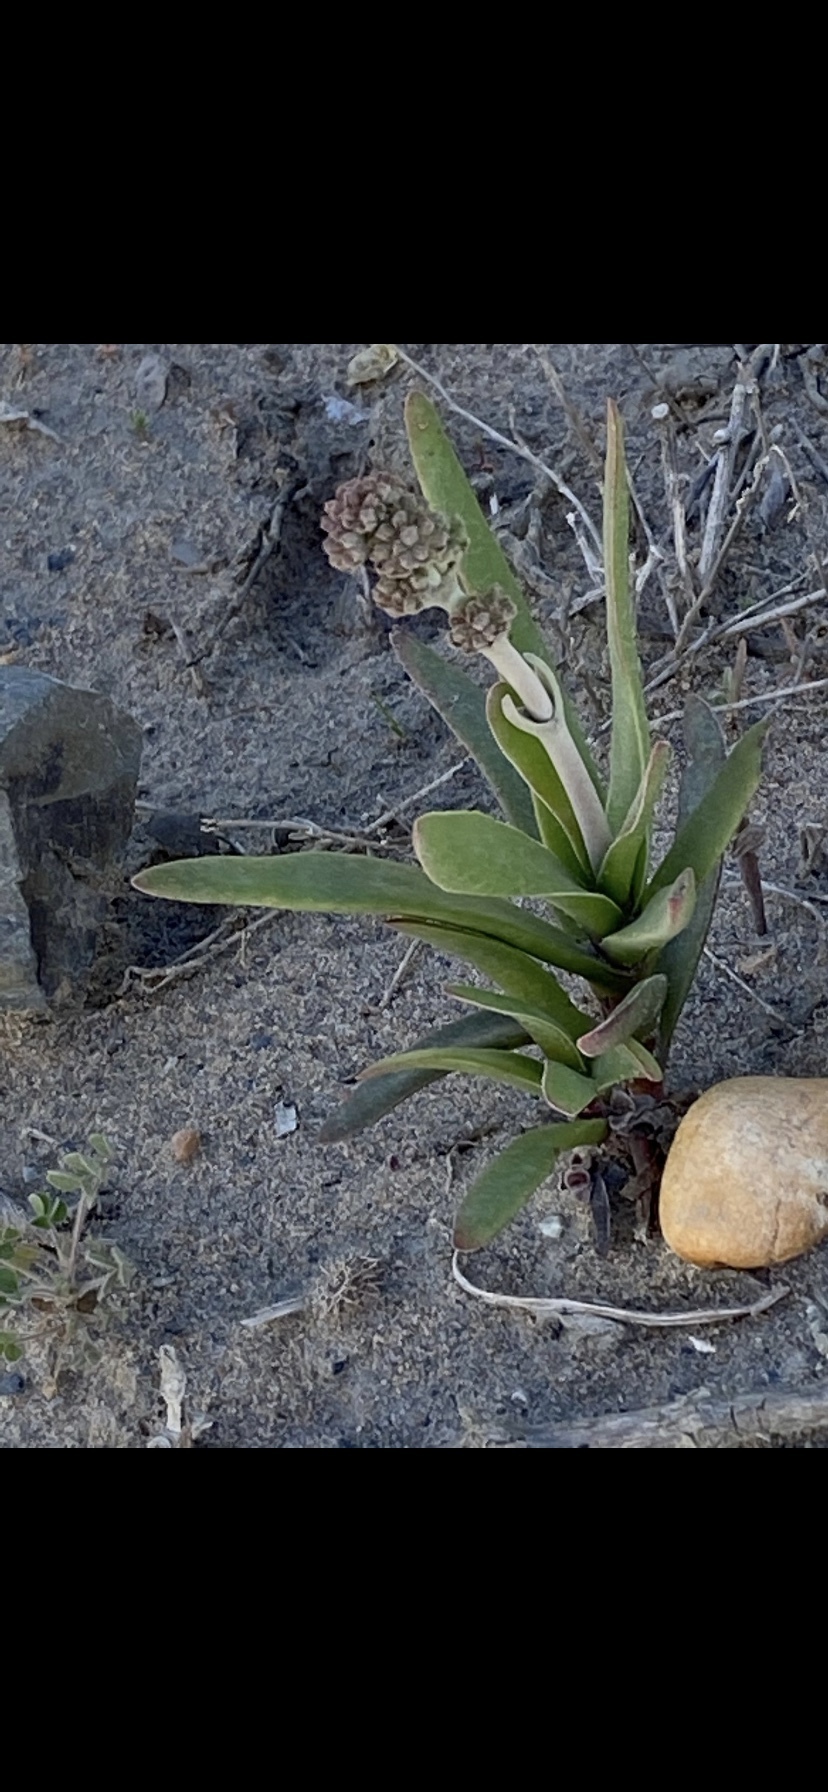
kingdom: Plantae
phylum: Tracheophyta
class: Magnoliopsida
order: Saxifragales
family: Crassulaceae
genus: Crassula
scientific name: Crassula pubescens
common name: Jersey pigmyweed
